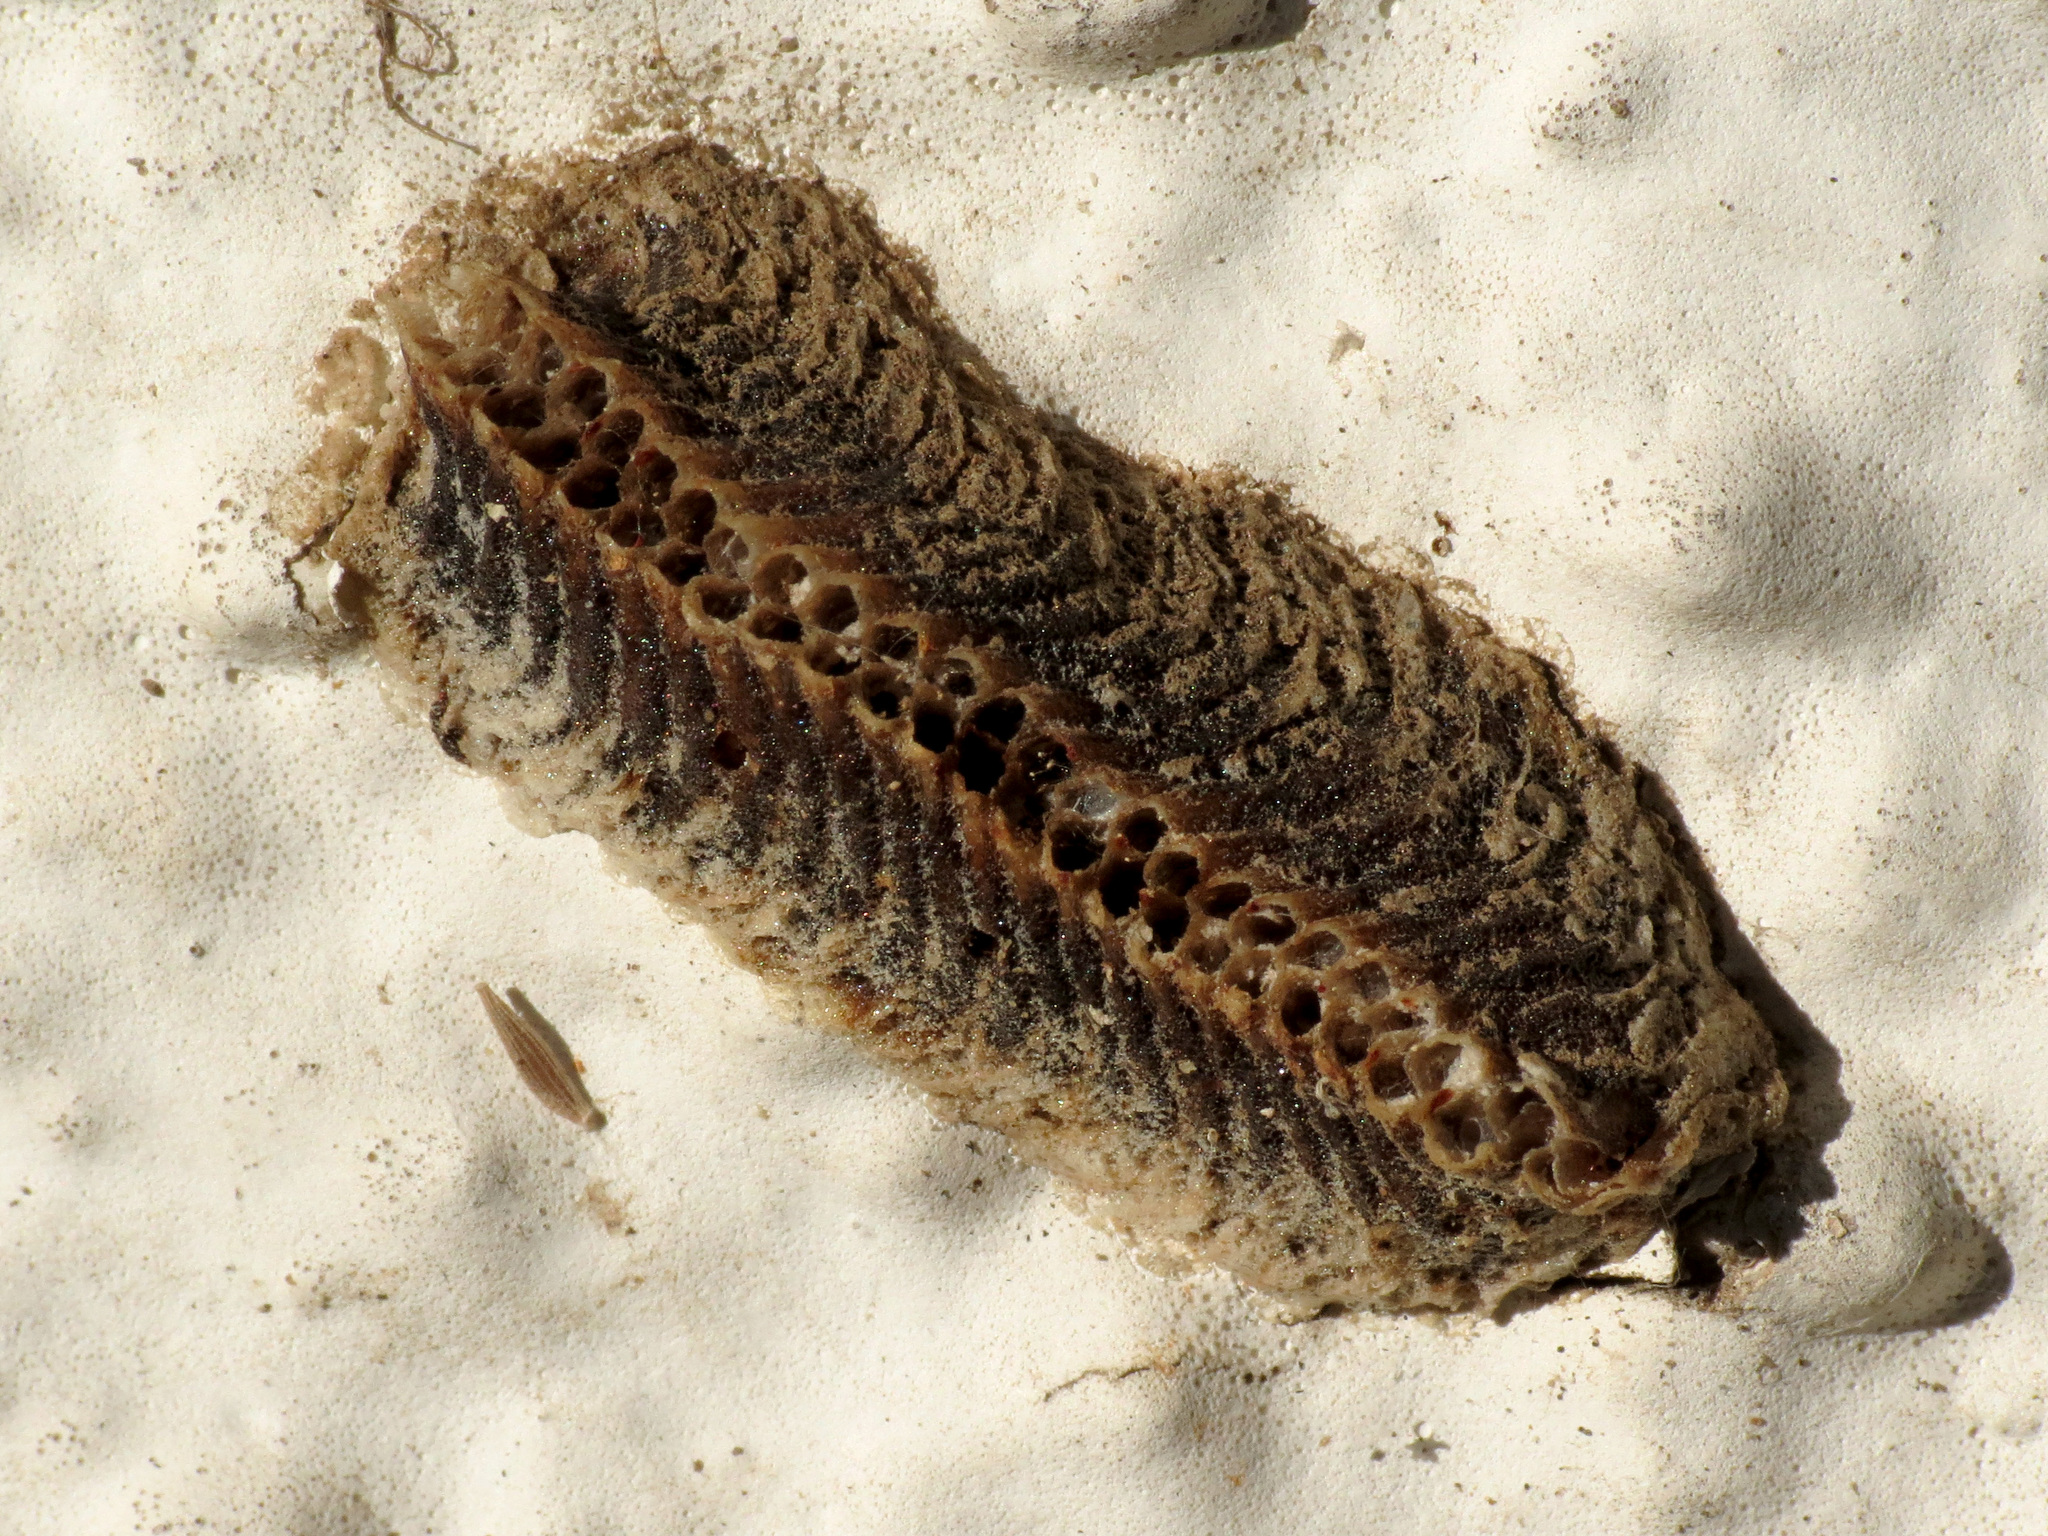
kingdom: Animalia
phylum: Arthropoda
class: Insecta
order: Mantodea
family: Eremiaphilidae
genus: Iris
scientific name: Iris oratoria
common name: Mediterranean mantis
